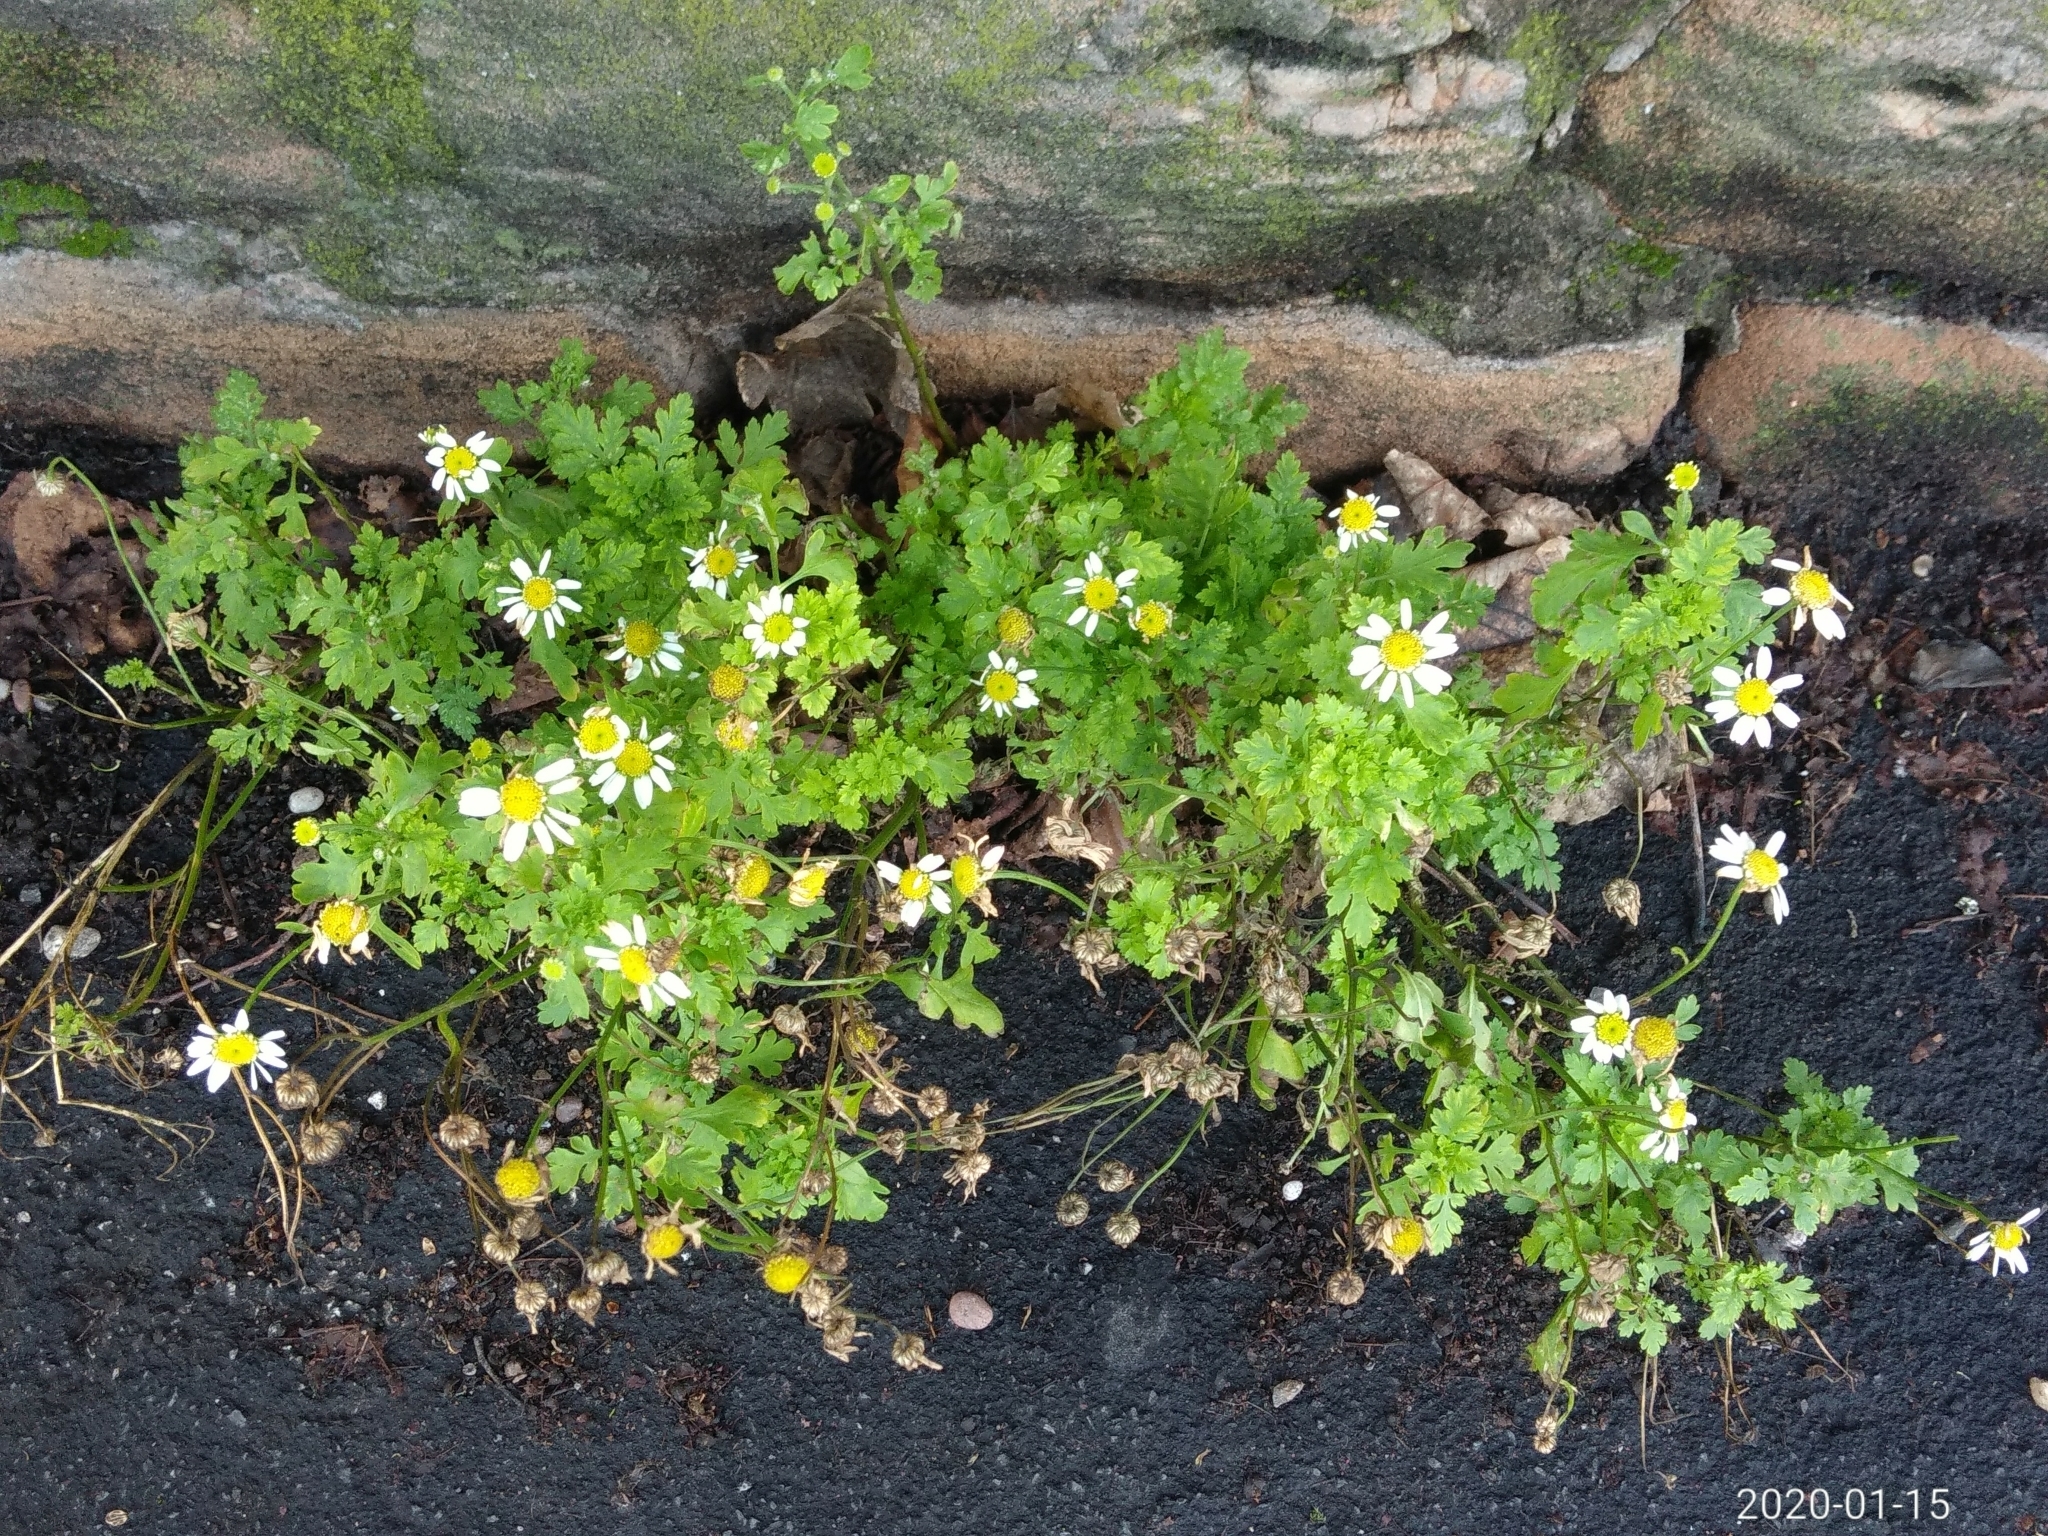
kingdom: Plantae
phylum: Tracheophyta
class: Magnoliopsida
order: Asterales
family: Asteraceae
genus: Tanacetum
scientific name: Tanacetum parthenium
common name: Feverfew
